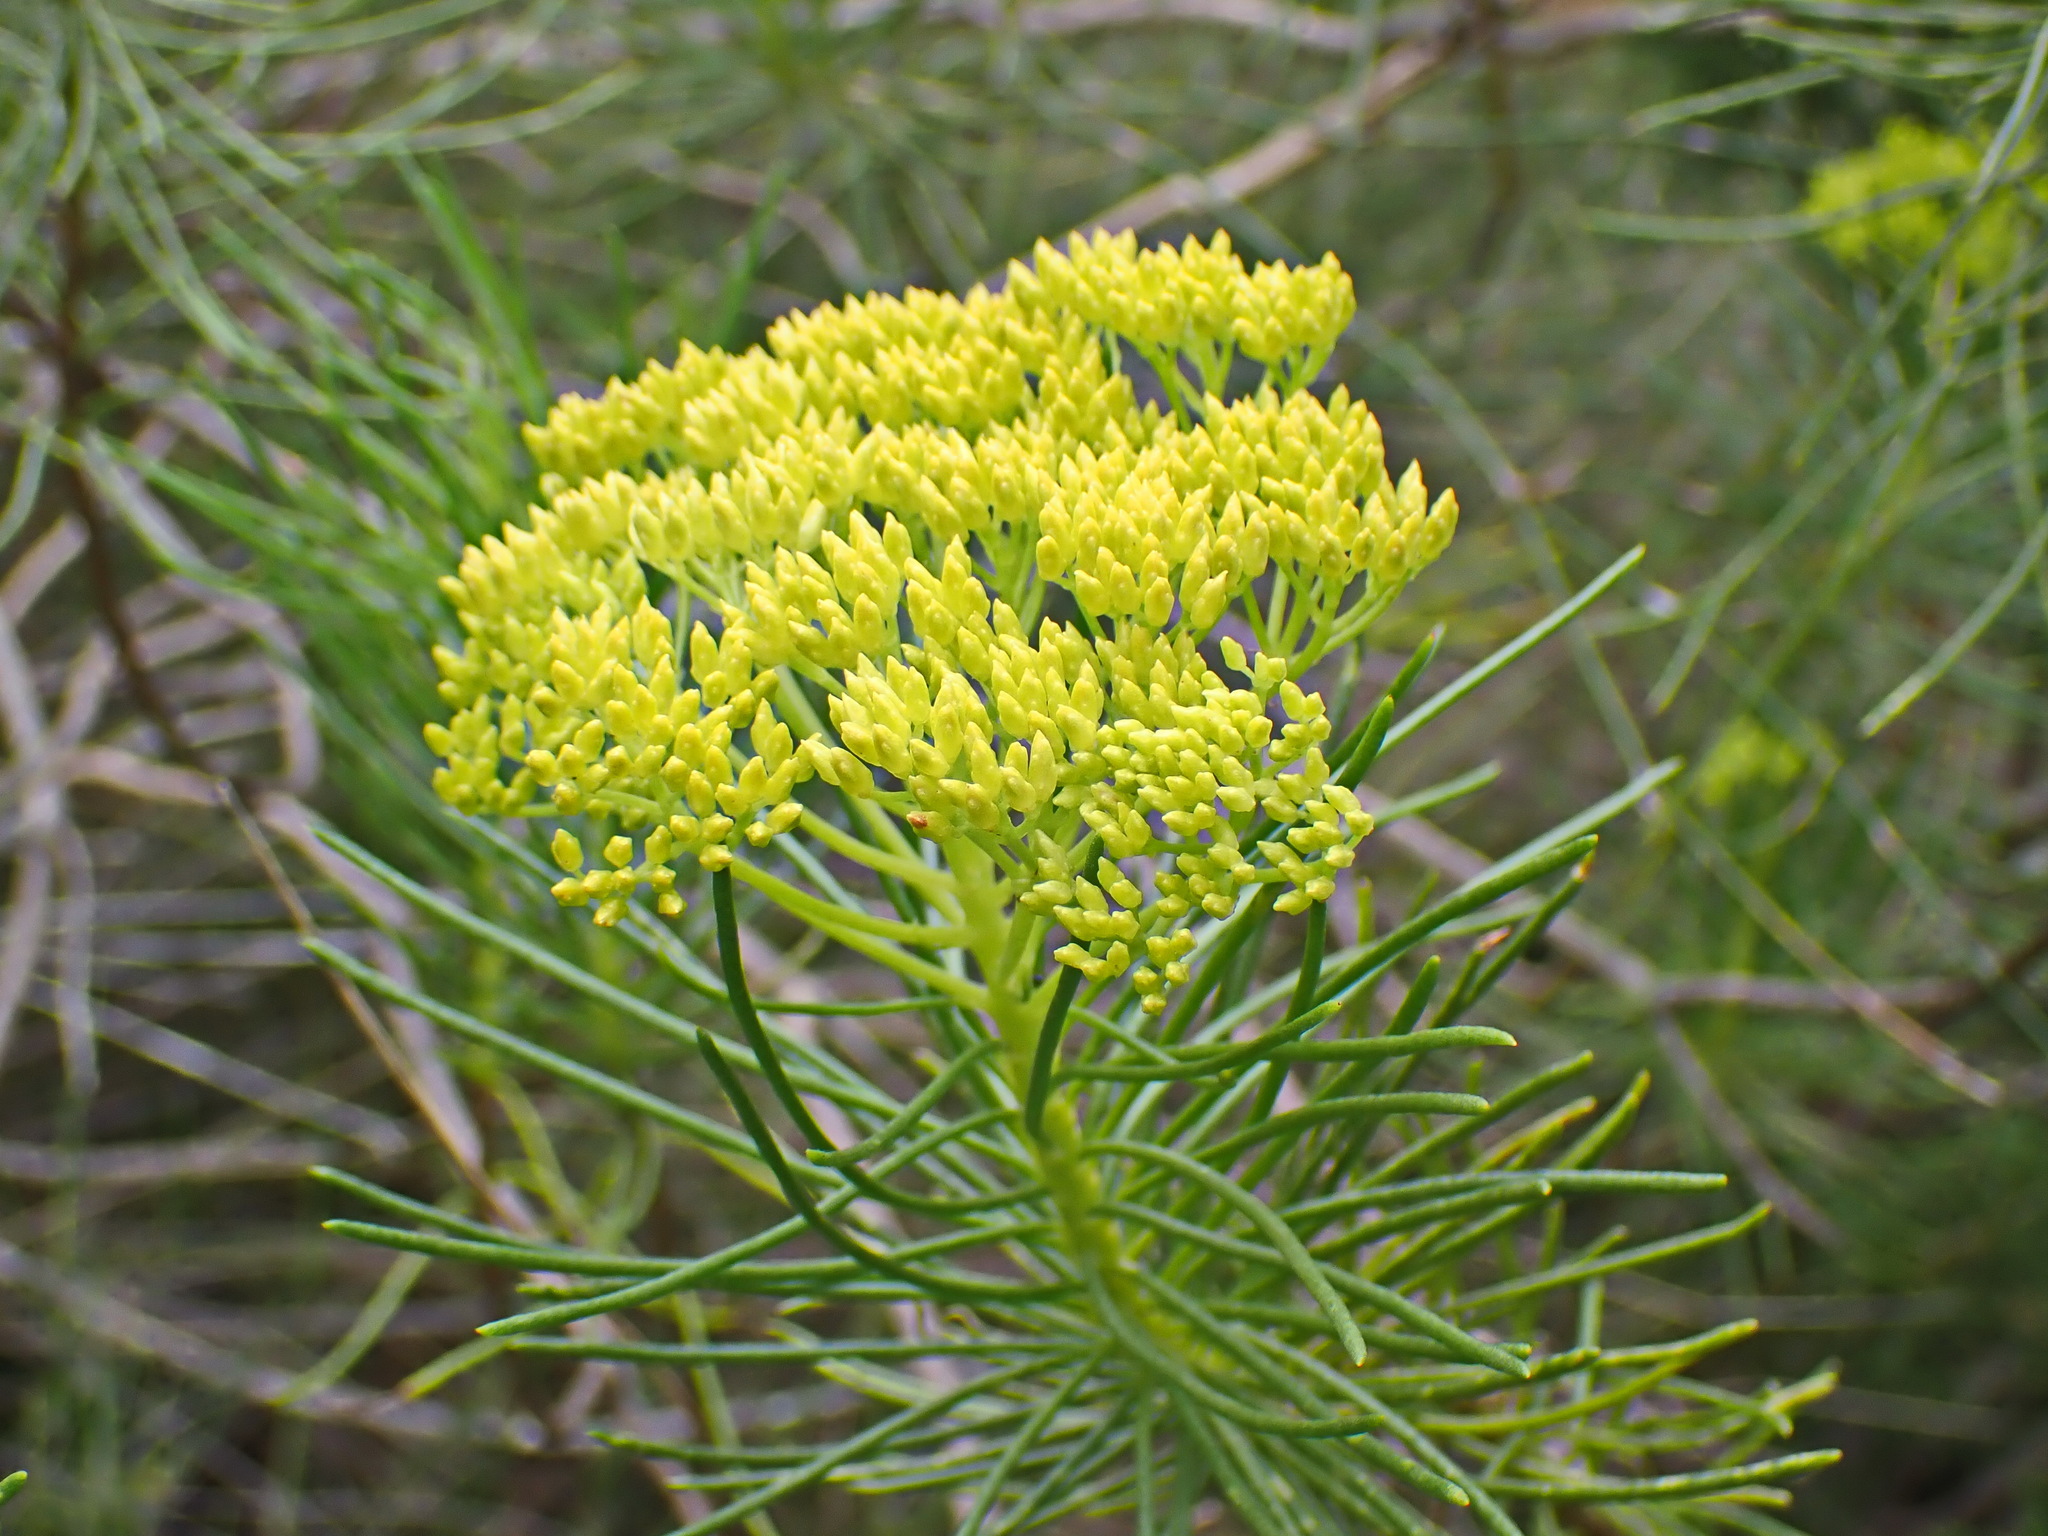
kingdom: Plantae
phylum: Tracheophyta
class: Magnoliopsida
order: Asterales
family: Asteraceae
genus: Hymenolepis
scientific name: Hymenolepis indivisa
